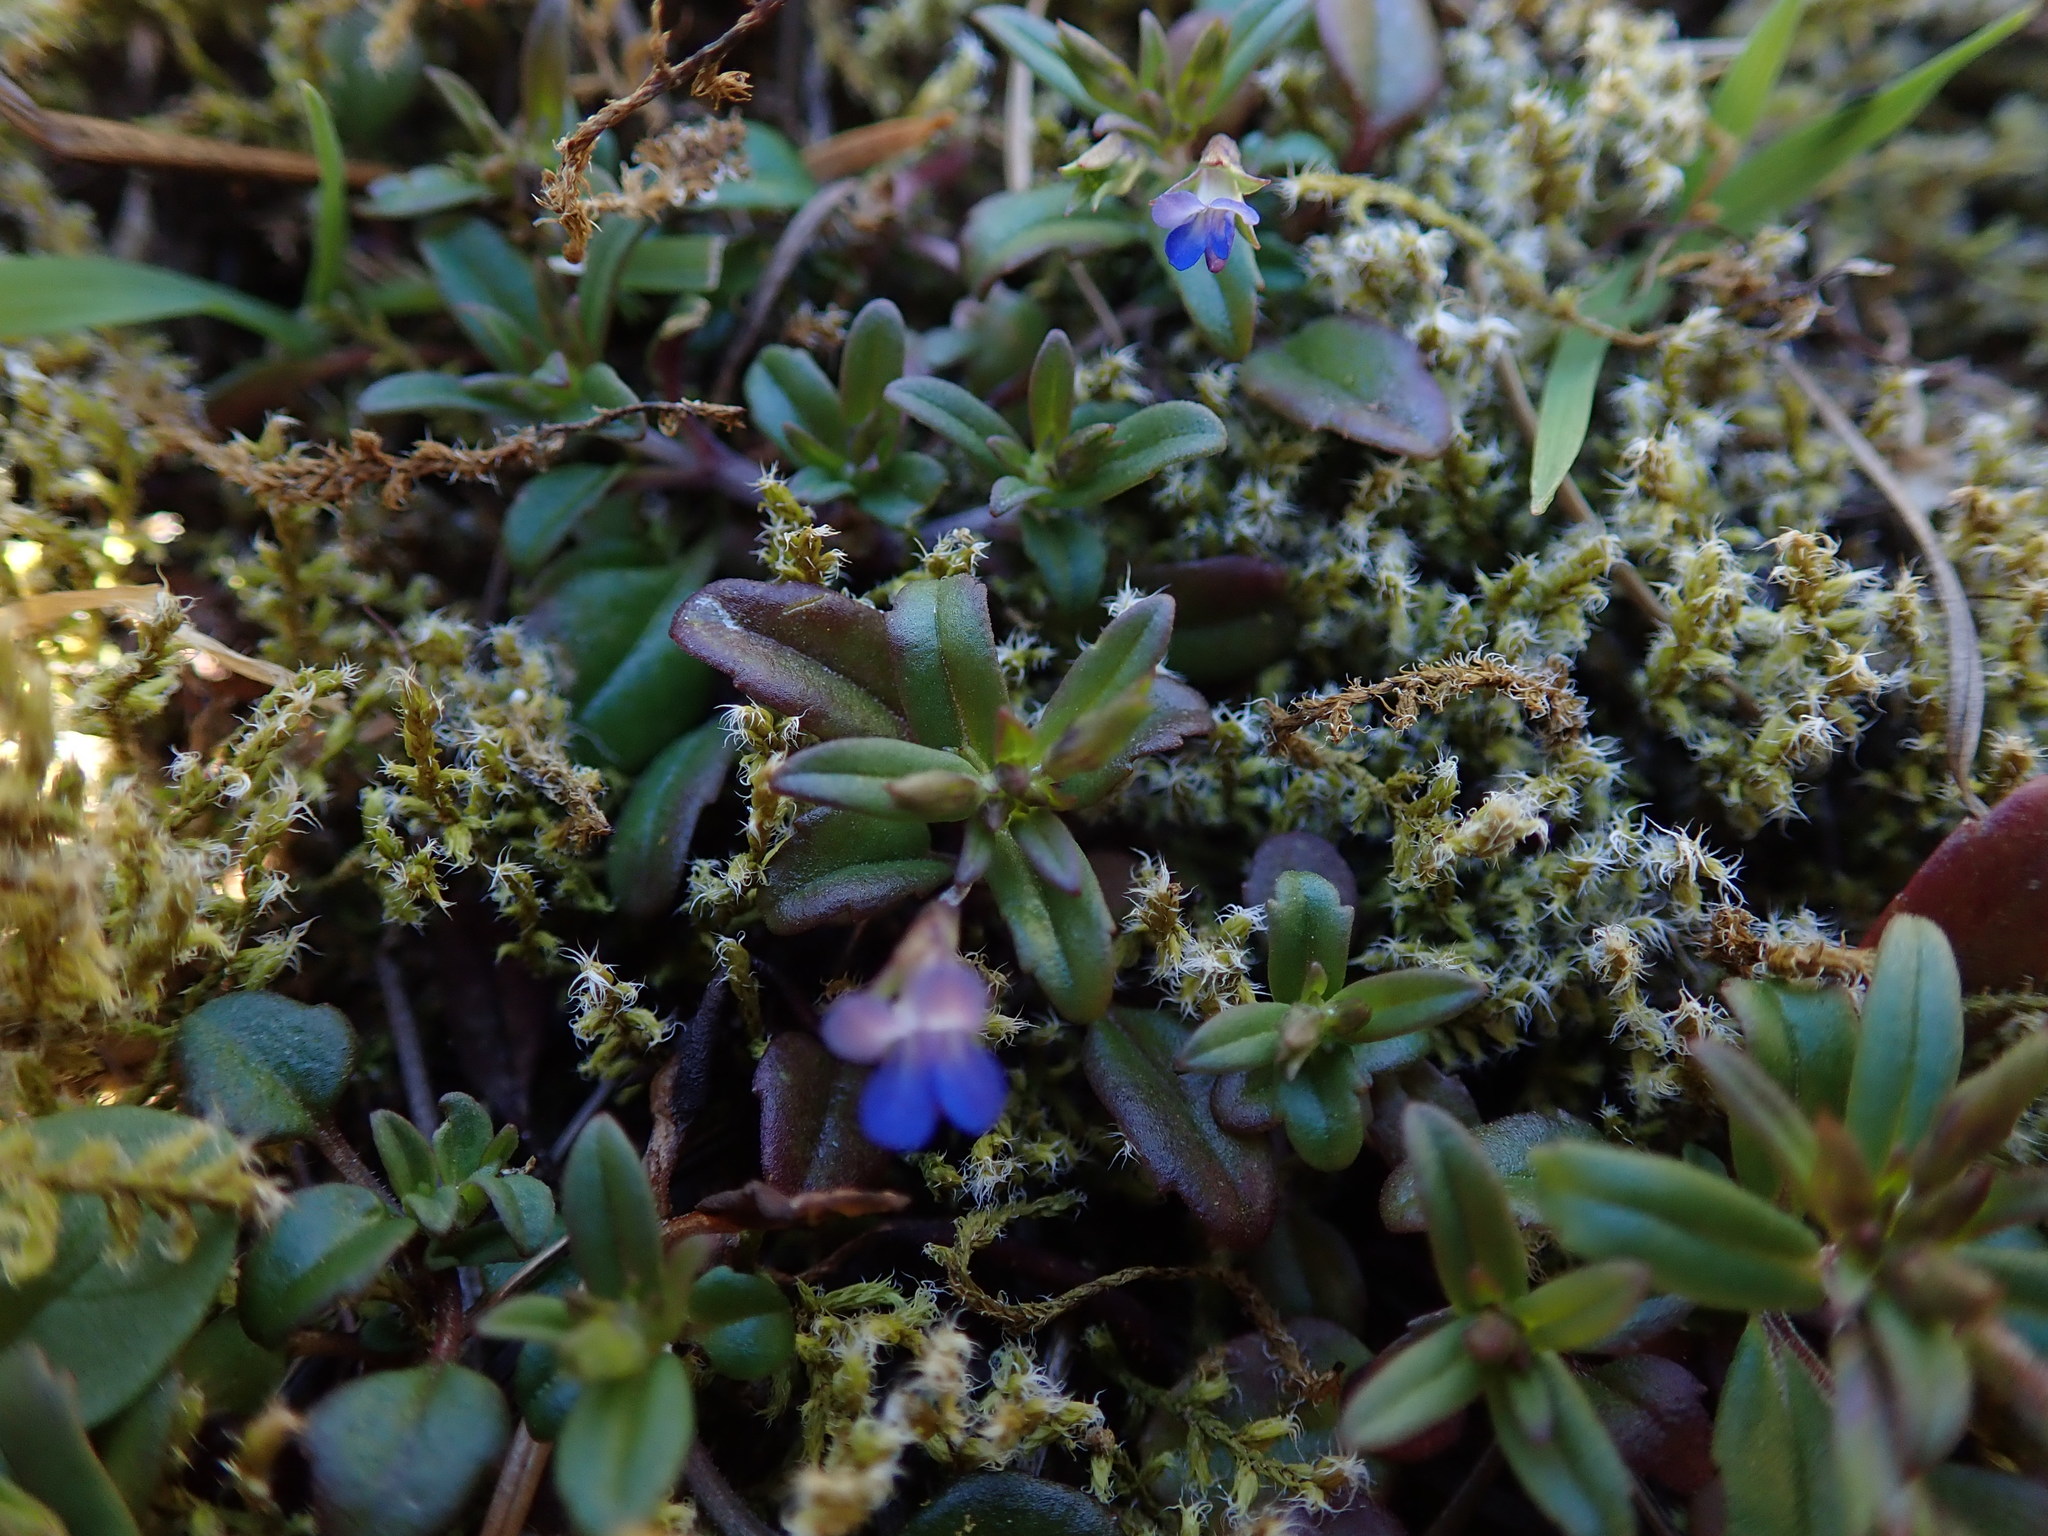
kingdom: Plantae
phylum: Tracheophyta
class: Magnoliopsida
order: Lamiales
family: Plantaginaceae
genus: Collinsia
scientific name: Collinsia parviflora
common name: Blue-lips
